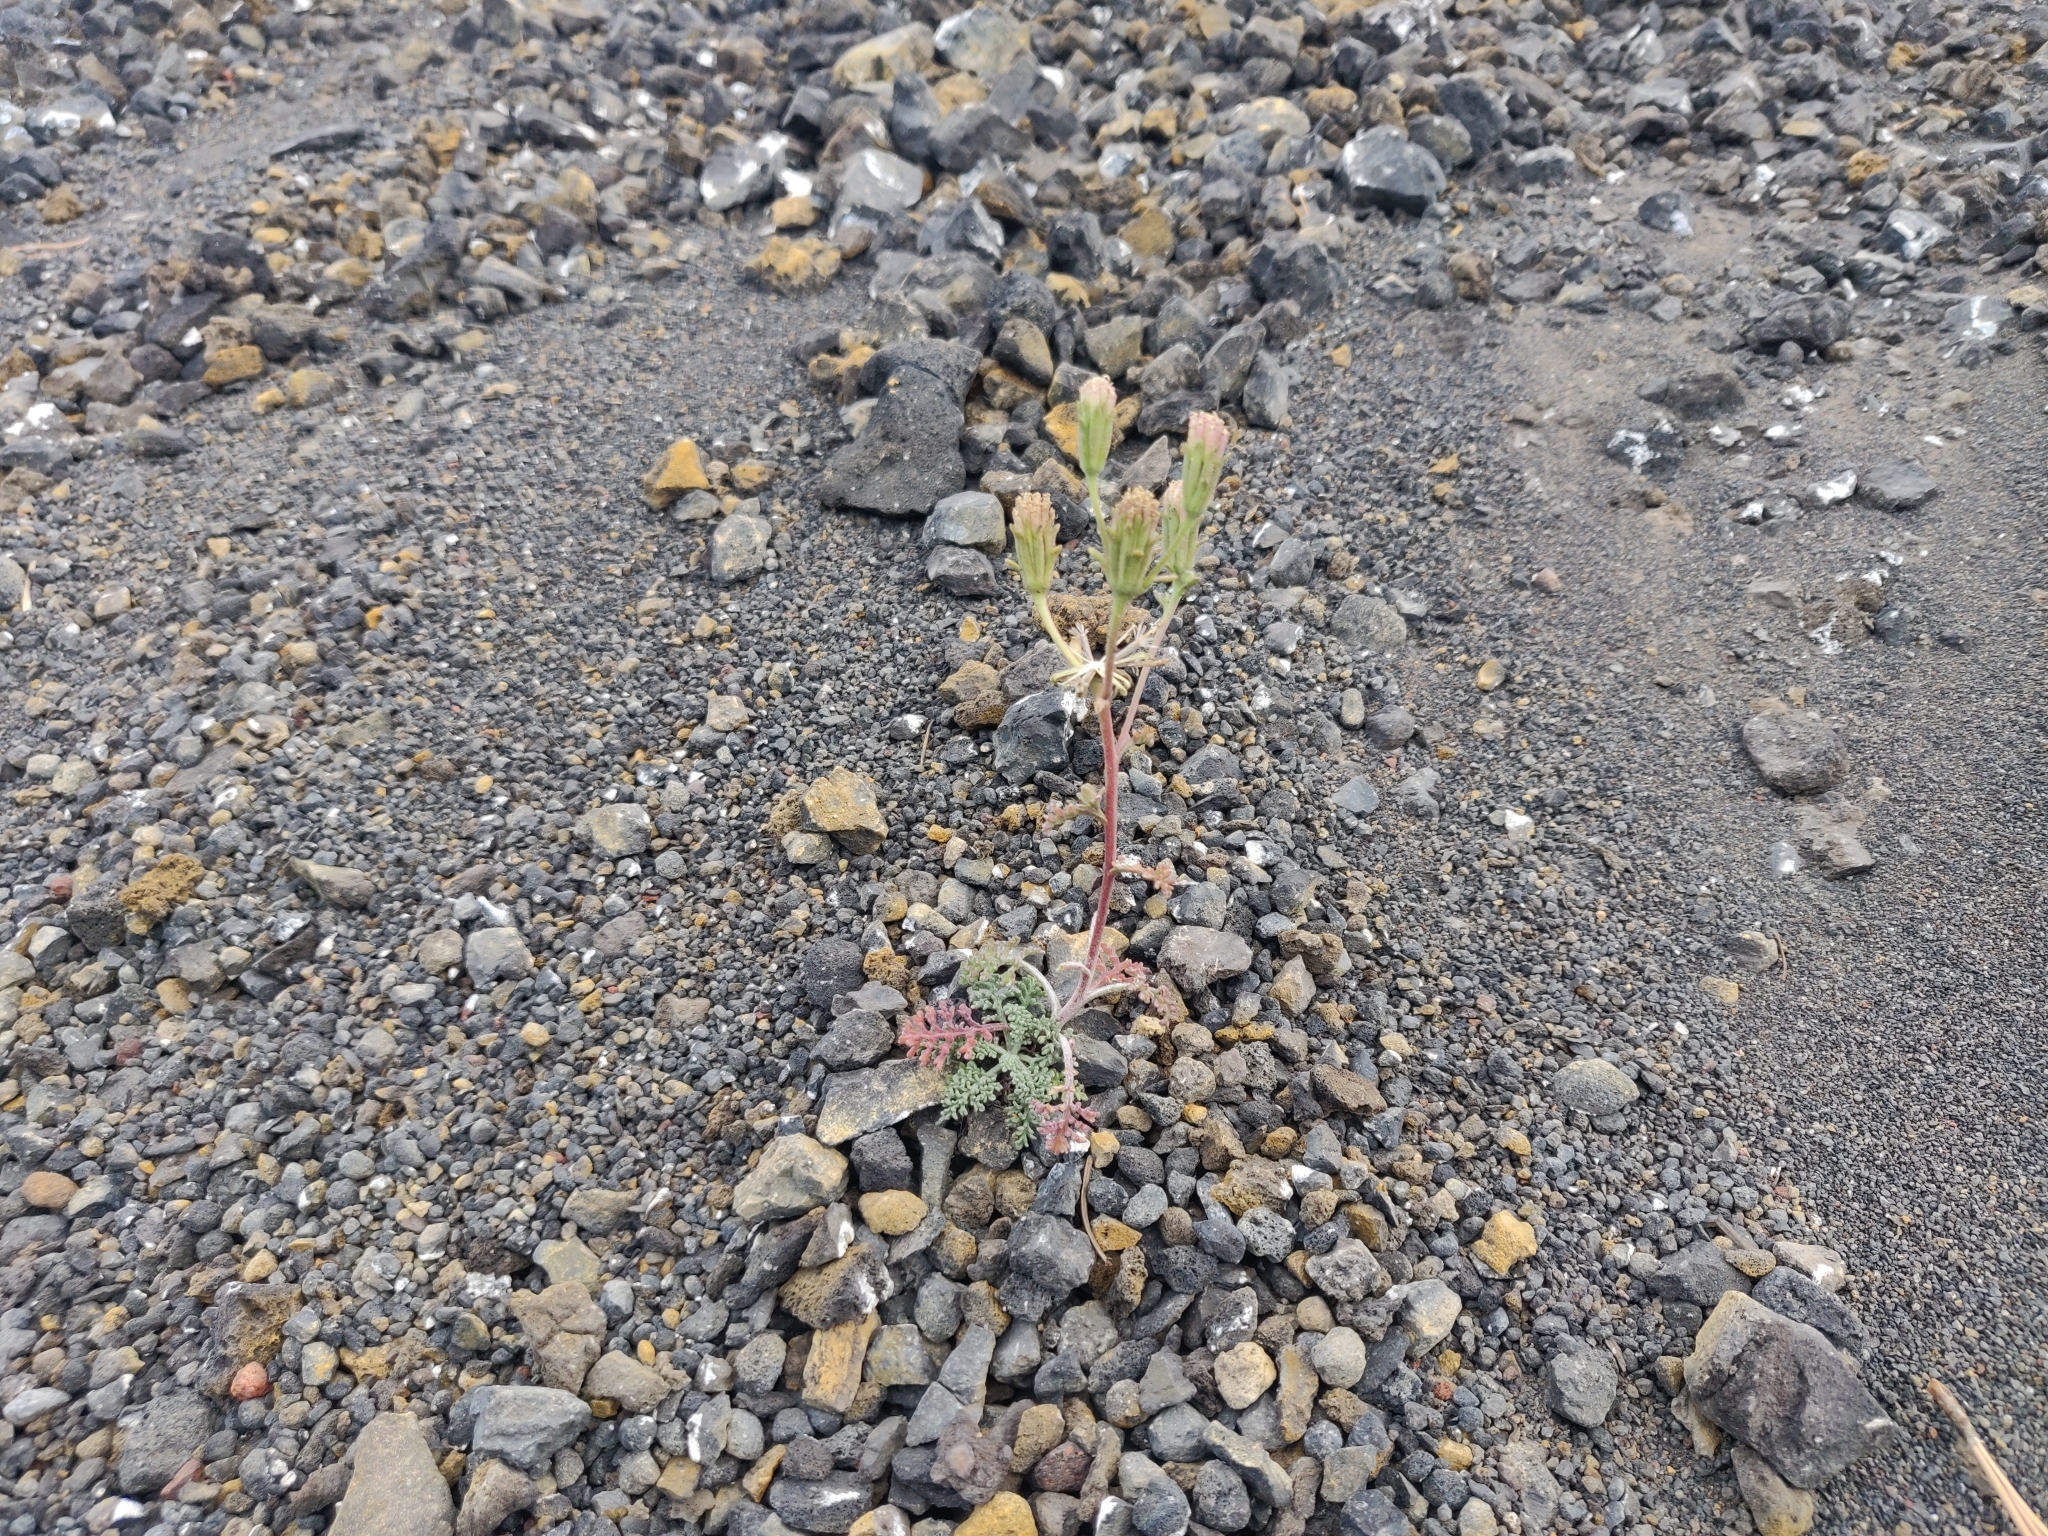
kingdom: Plantae
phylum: Tracheophyta
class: Magnoliopsida
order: Asterales
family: Asteraceae
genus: Chaenactis
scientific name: Chaenactis douglasii
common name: Hoary pincushion
